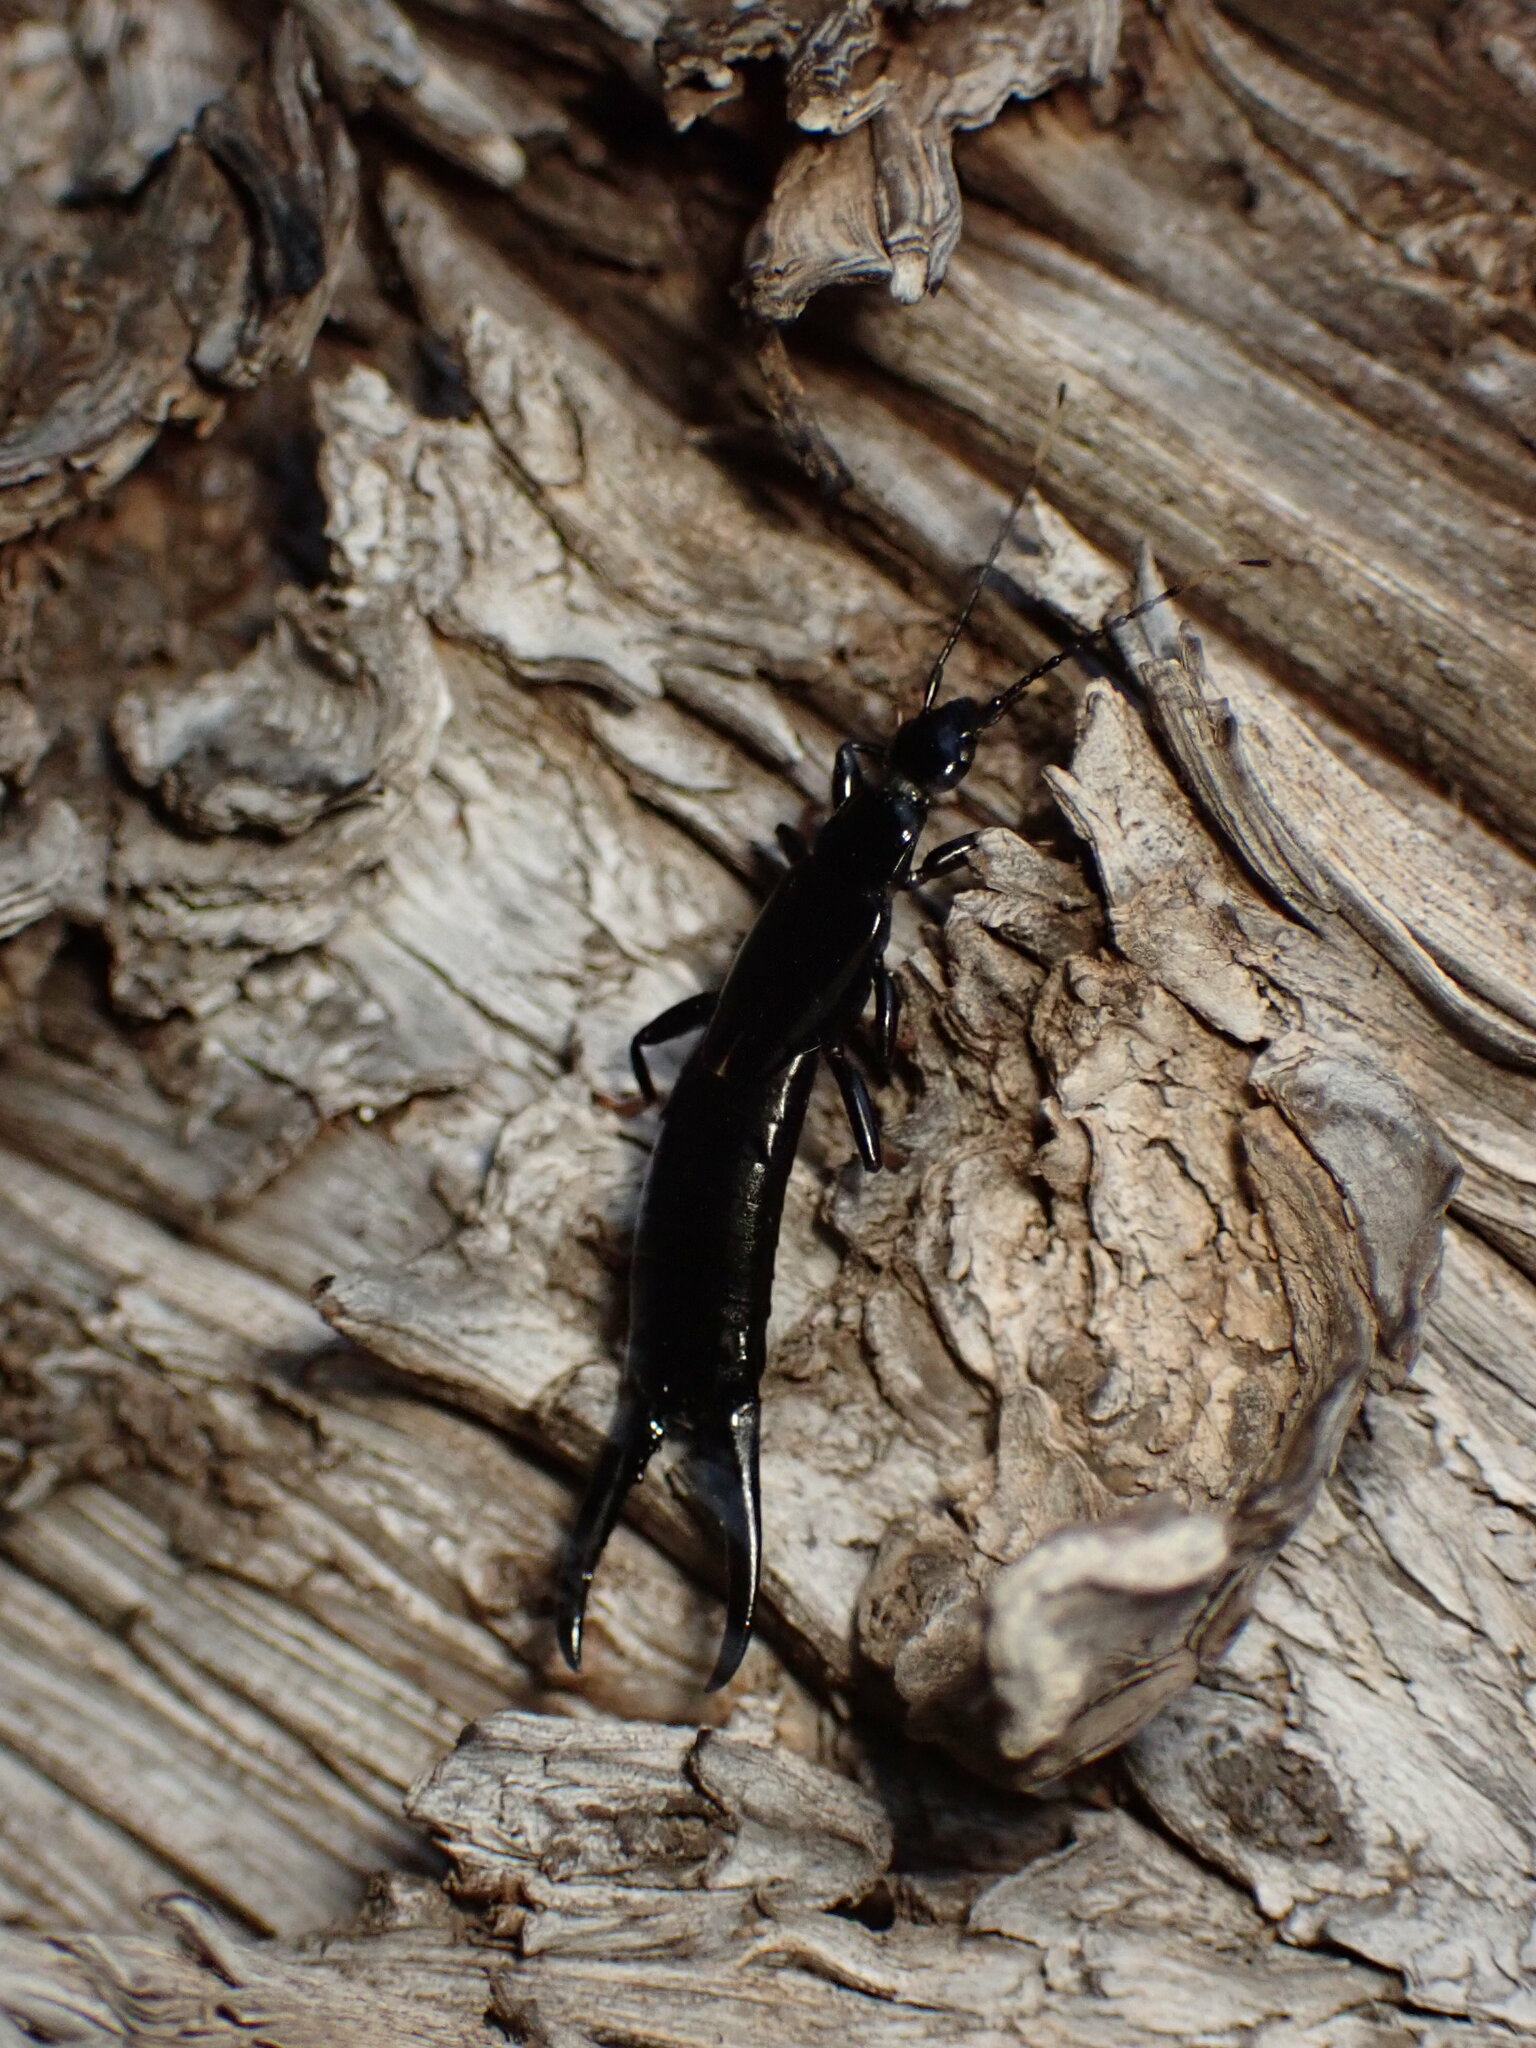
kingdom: Animalia
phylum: Arthropoda
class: Insecta
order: Dermaptera
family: Chelisochidae
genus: Chelisoches
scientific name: Chelisoches morio
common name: Black earwig
